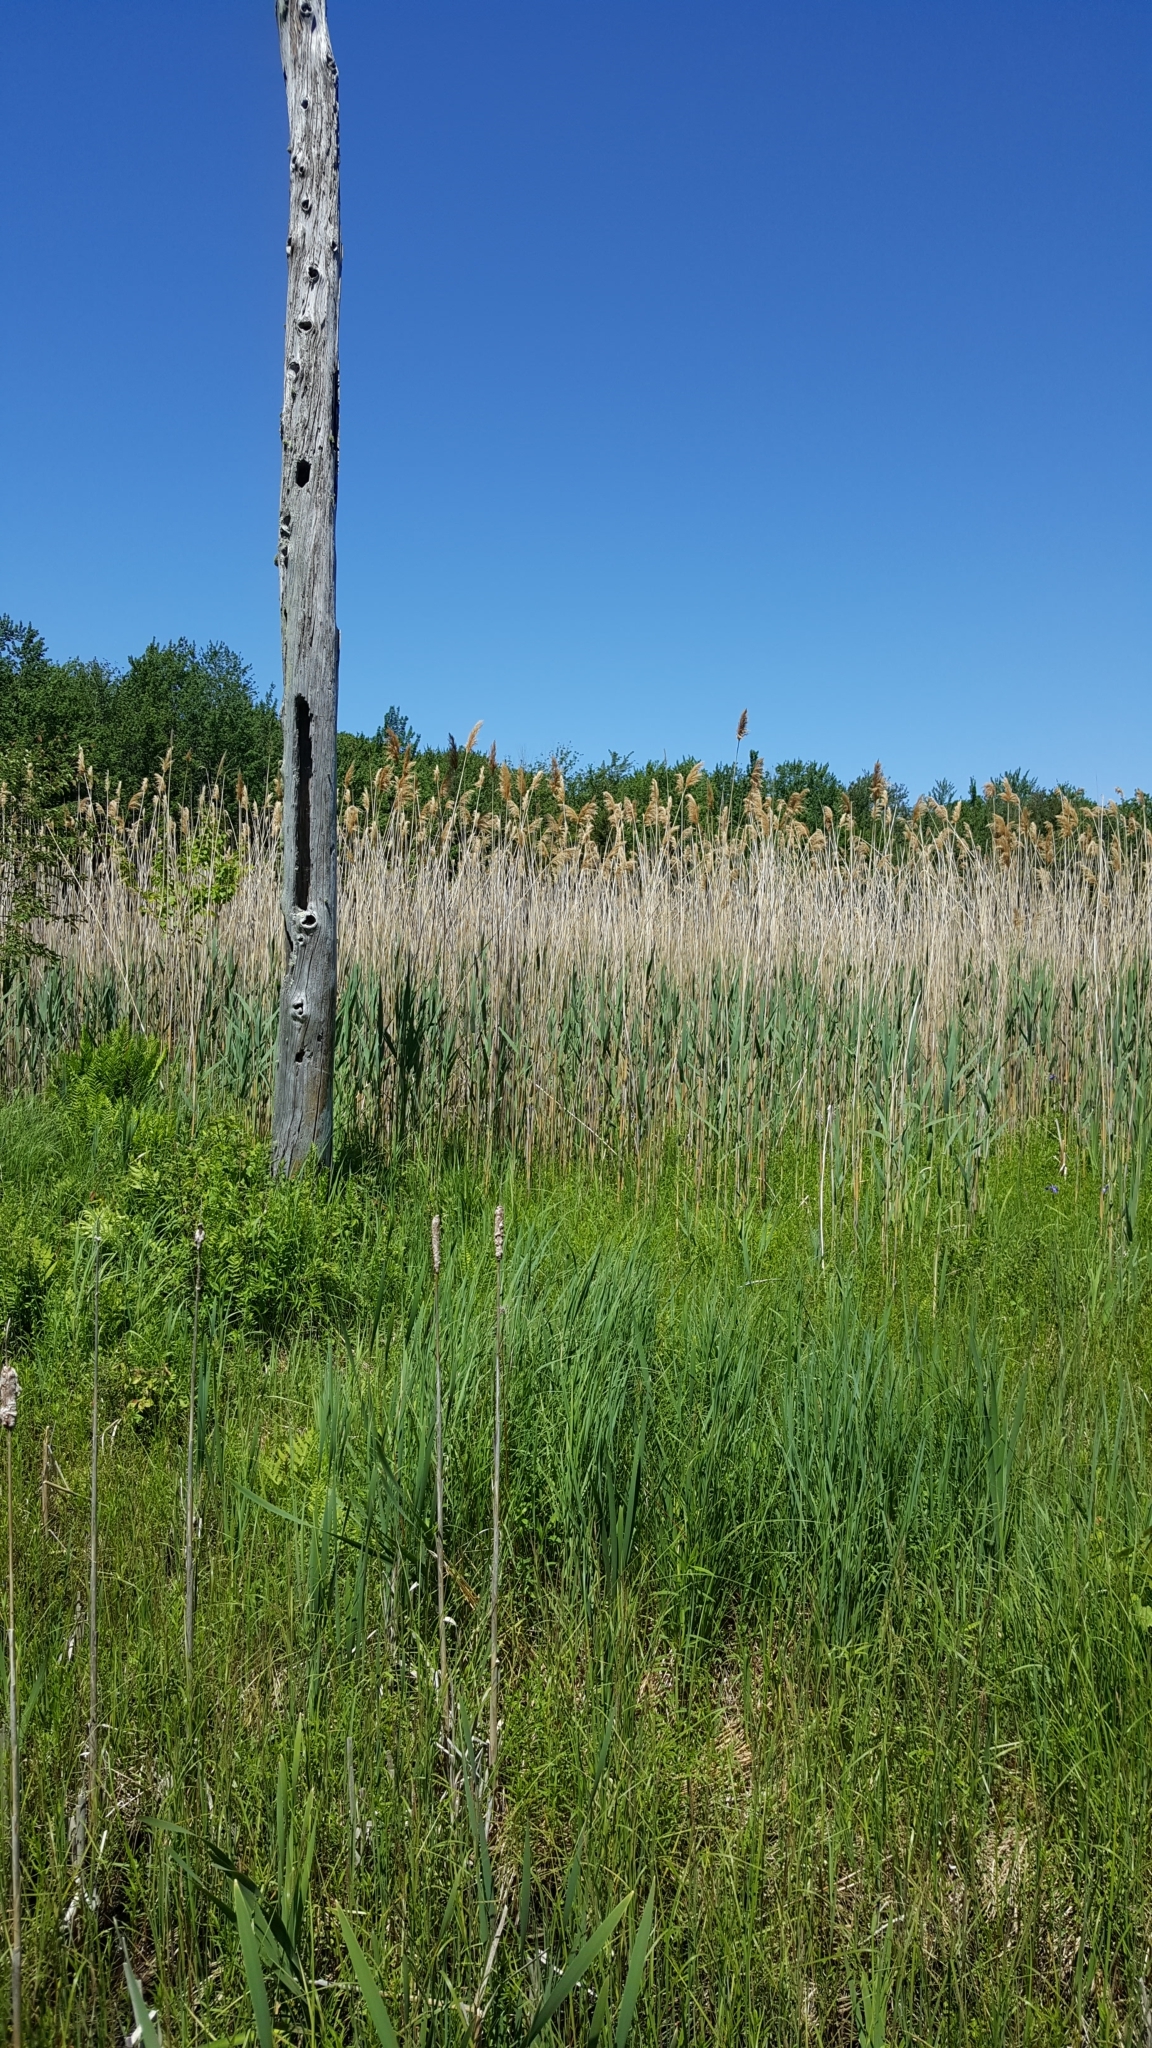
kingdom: Plantae
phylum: Tracheophyta
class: Liliopsida
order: Poales
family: Poaceae
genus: Phragmites
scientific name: Phragmites australis
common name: Common reed
